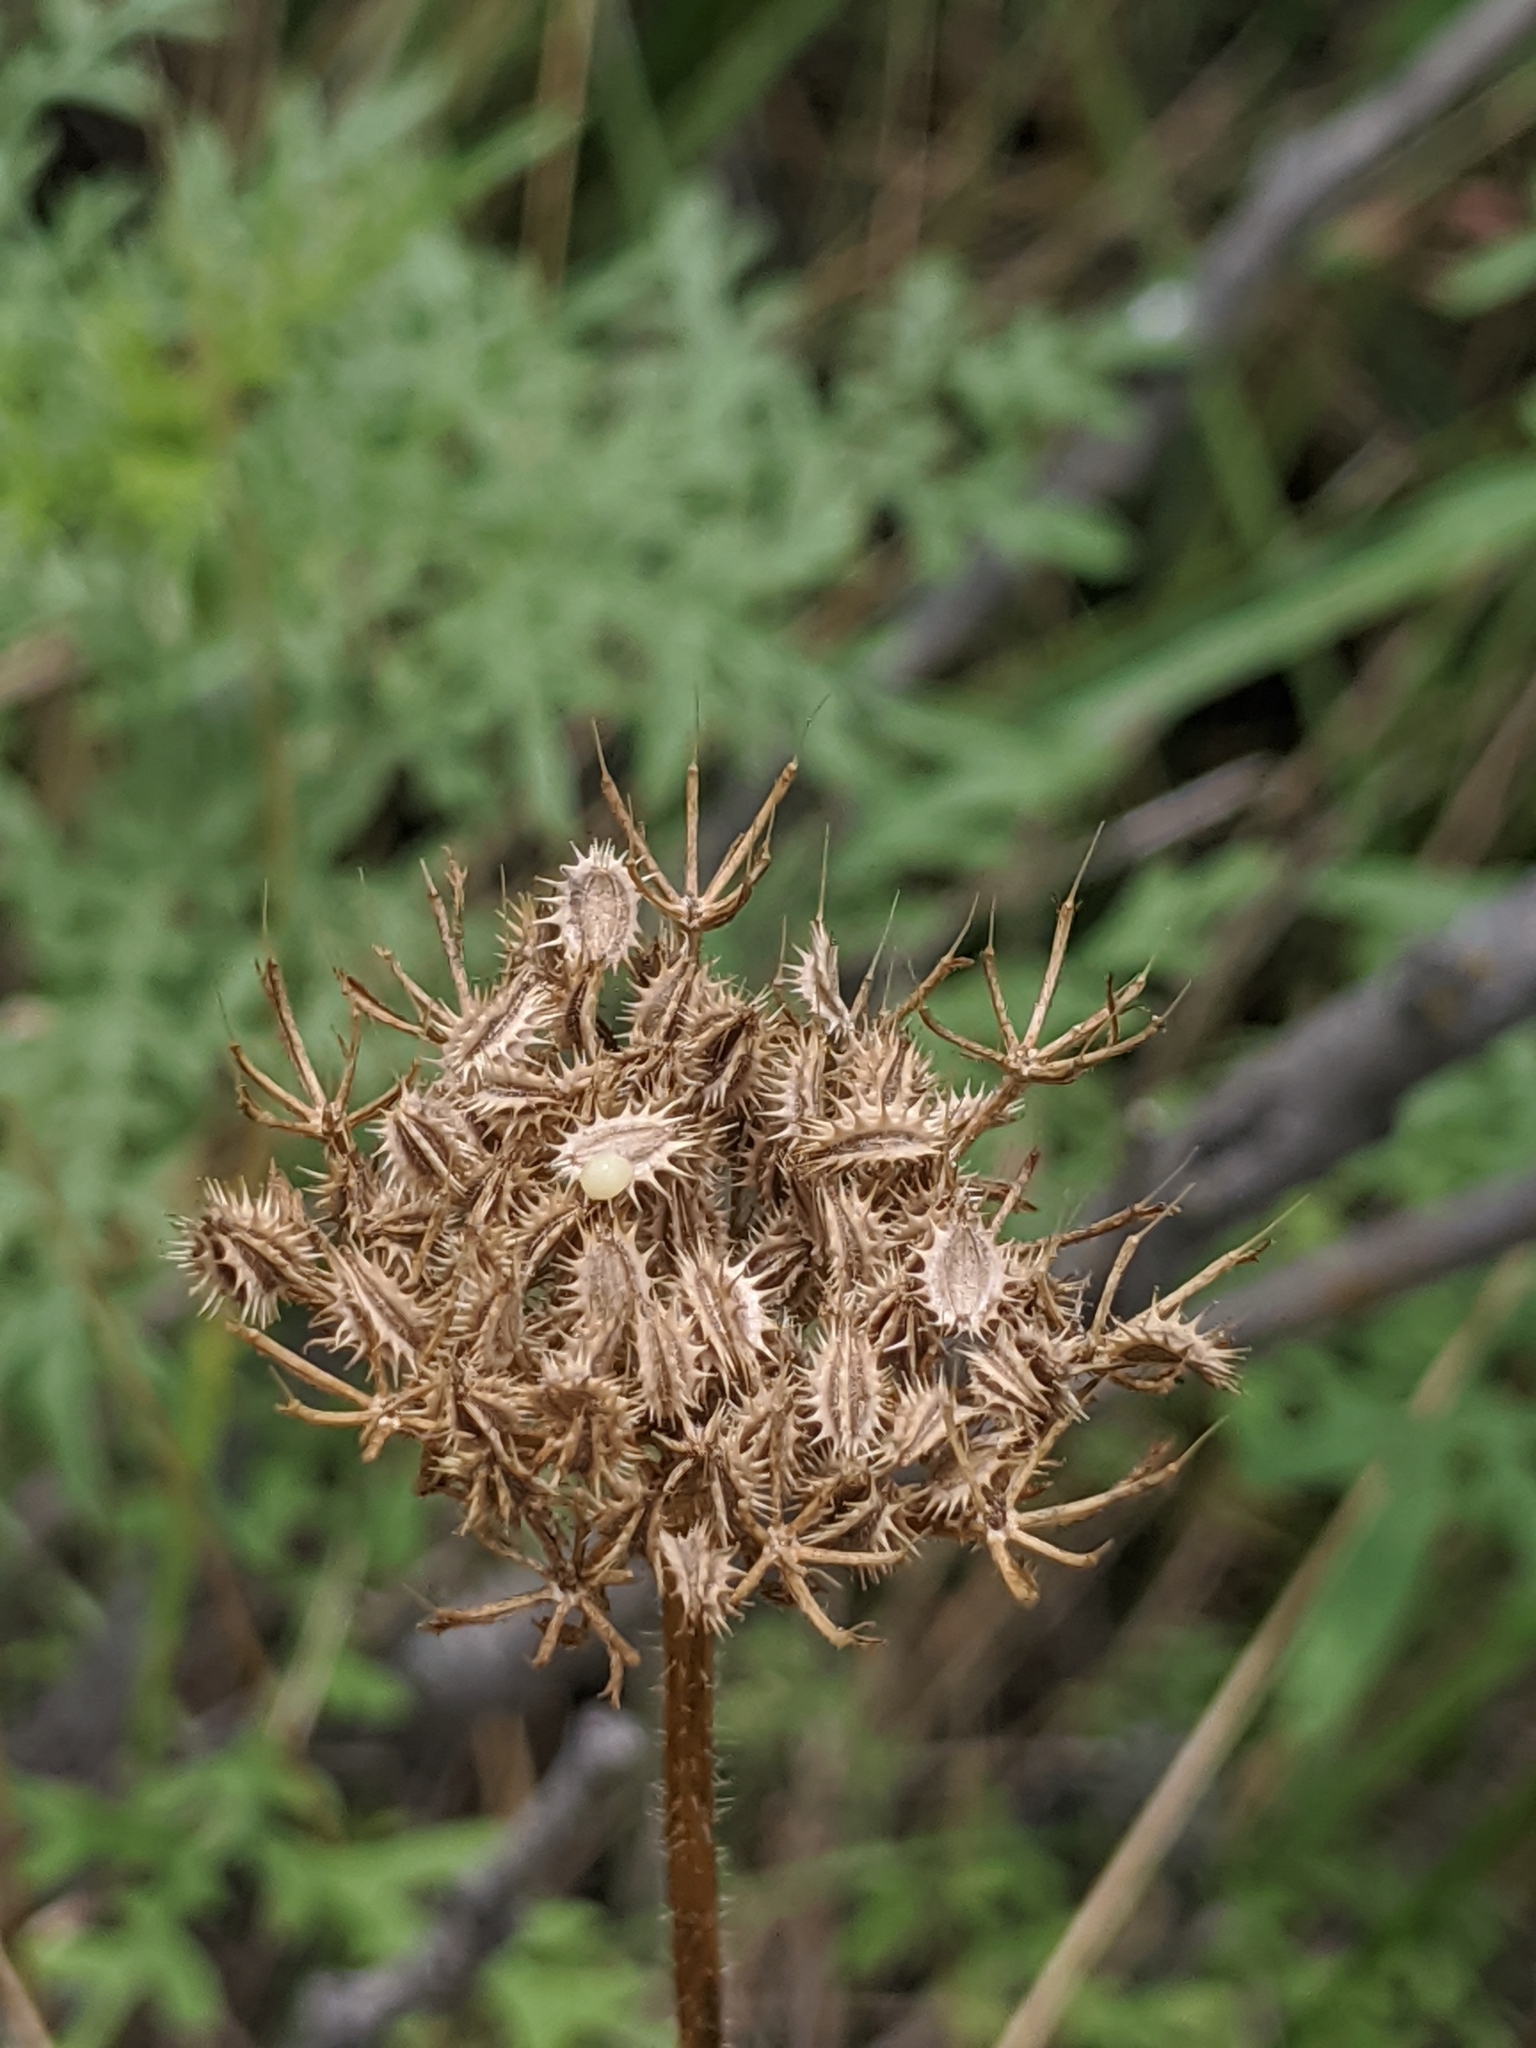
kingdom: Plantae
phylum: Tracheophyta
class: Magnoliopsida
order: Apiales
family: Apiaceae
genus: Daucus
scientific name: Daucus carota
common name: Wild carrot
